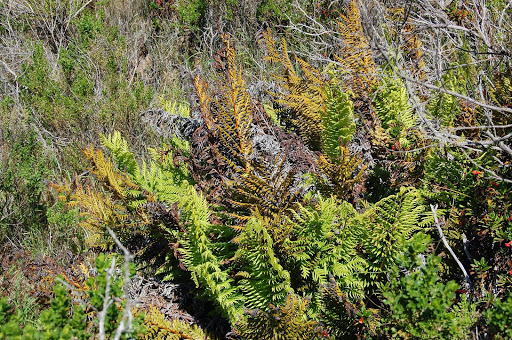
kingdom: Plantae
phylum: Tracheophyta
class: Polypodiopsida
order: Polypodiales
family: Blechnaceae
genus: Woodwardia
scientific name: Woodwardia fimbriata
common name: Giant chain fern
